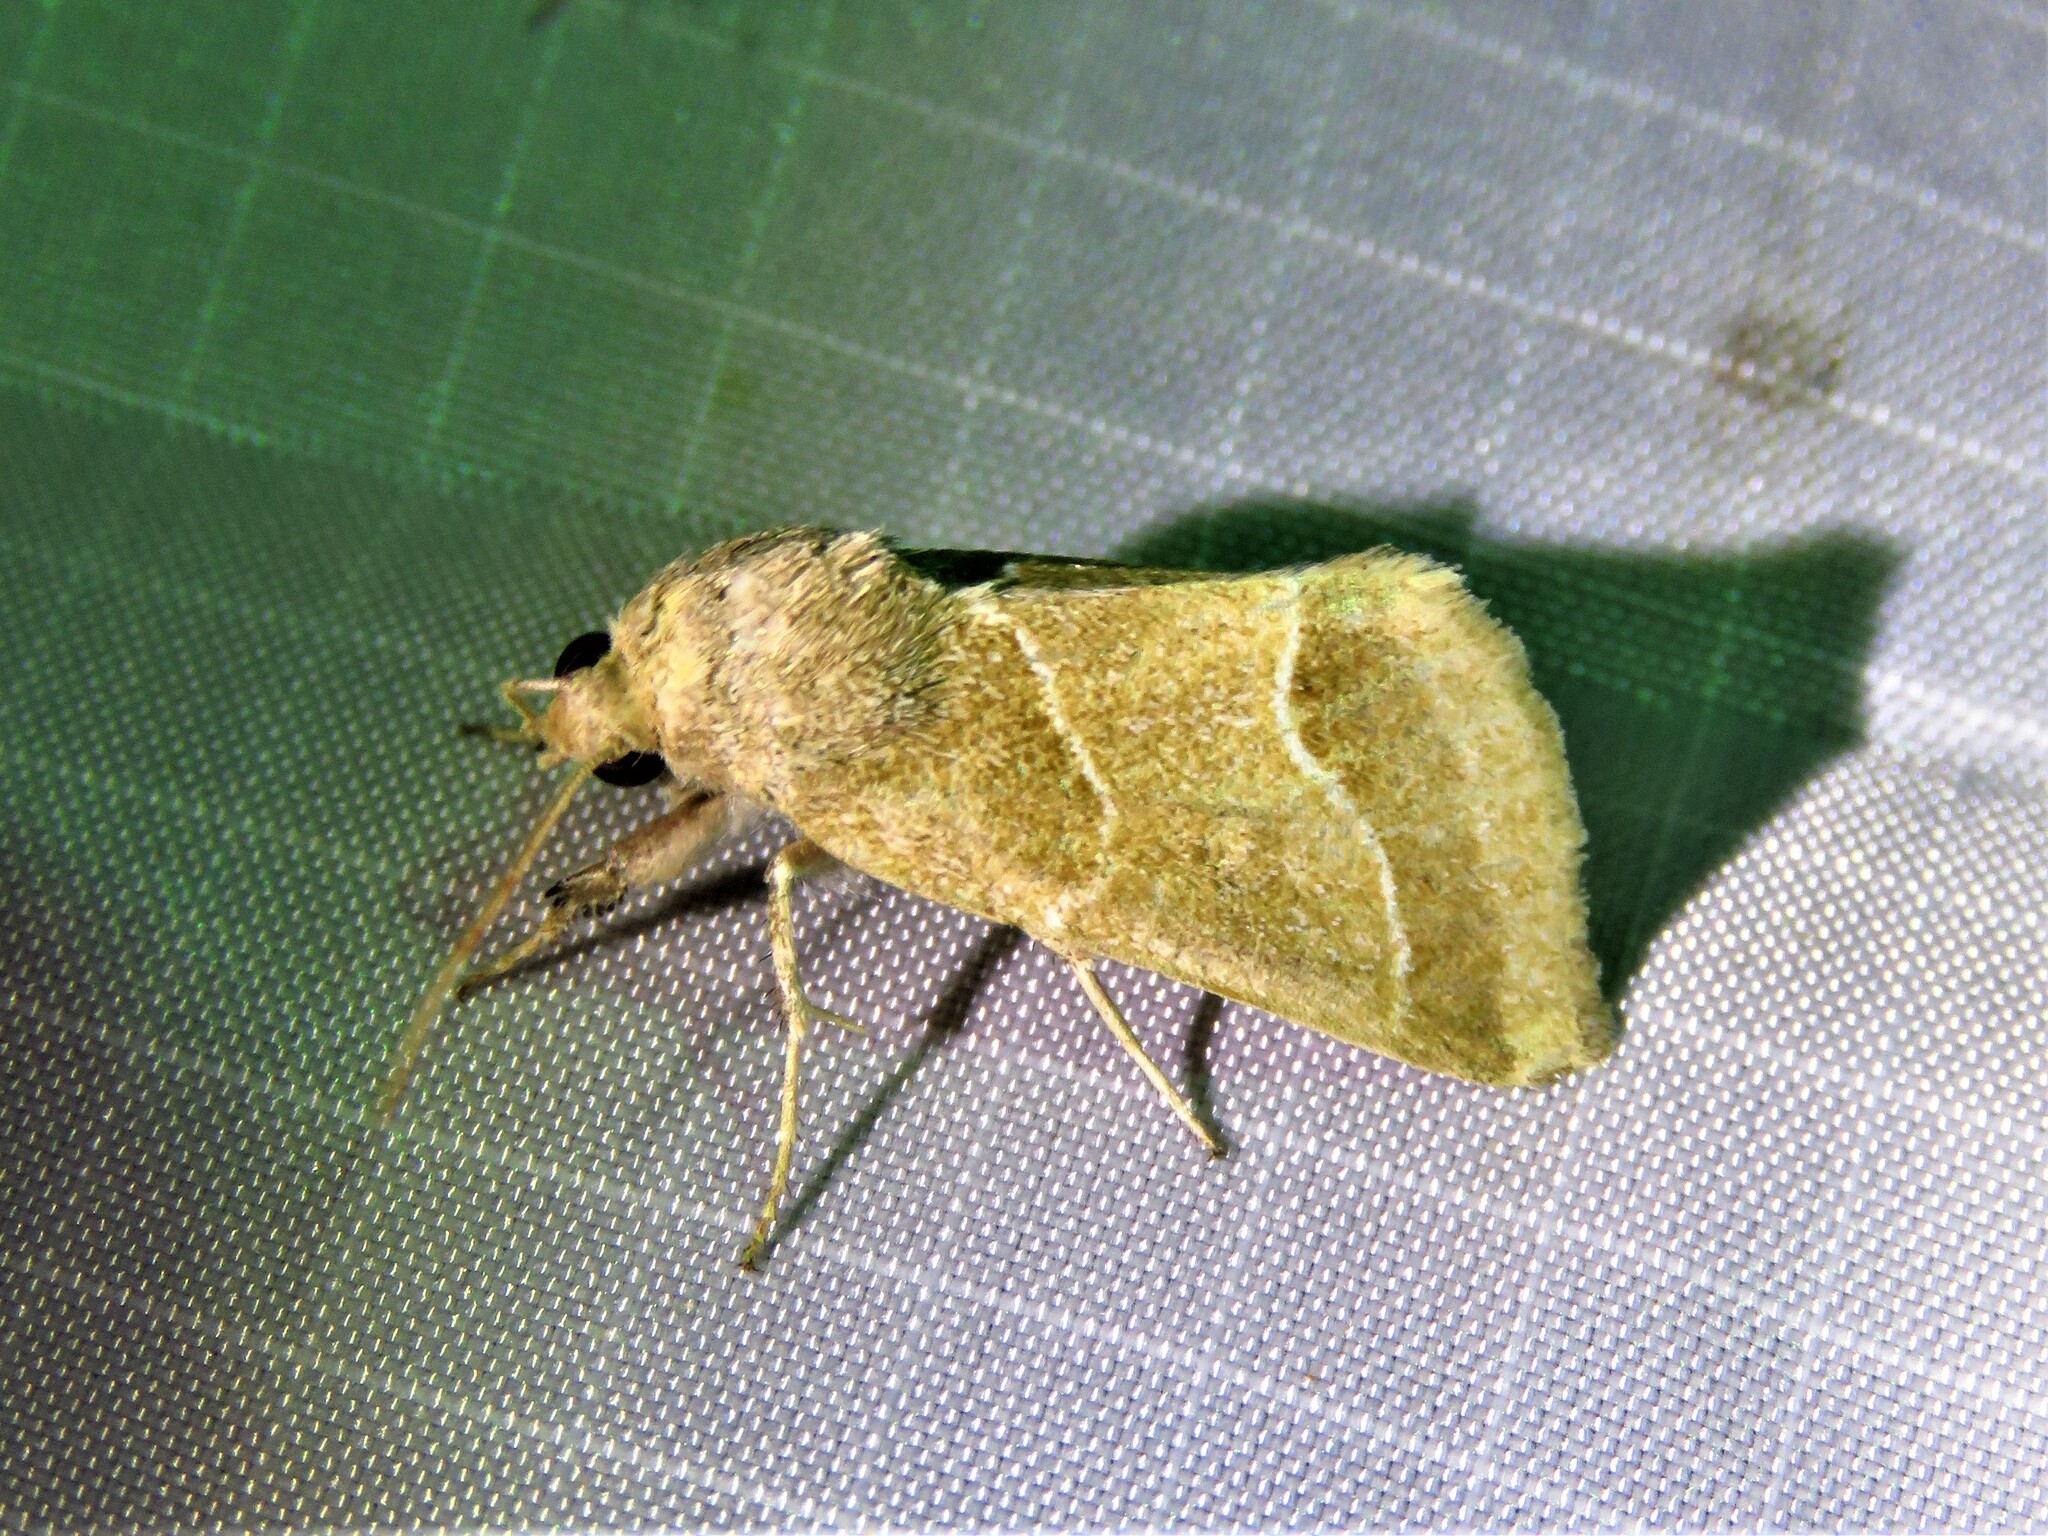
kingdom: Animalia
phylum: Arthropoda
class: Insecta
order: Lepidoptera
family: Noctuidae
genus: Schinia
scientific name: Schinia gracilenta
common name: Slender flower moth
